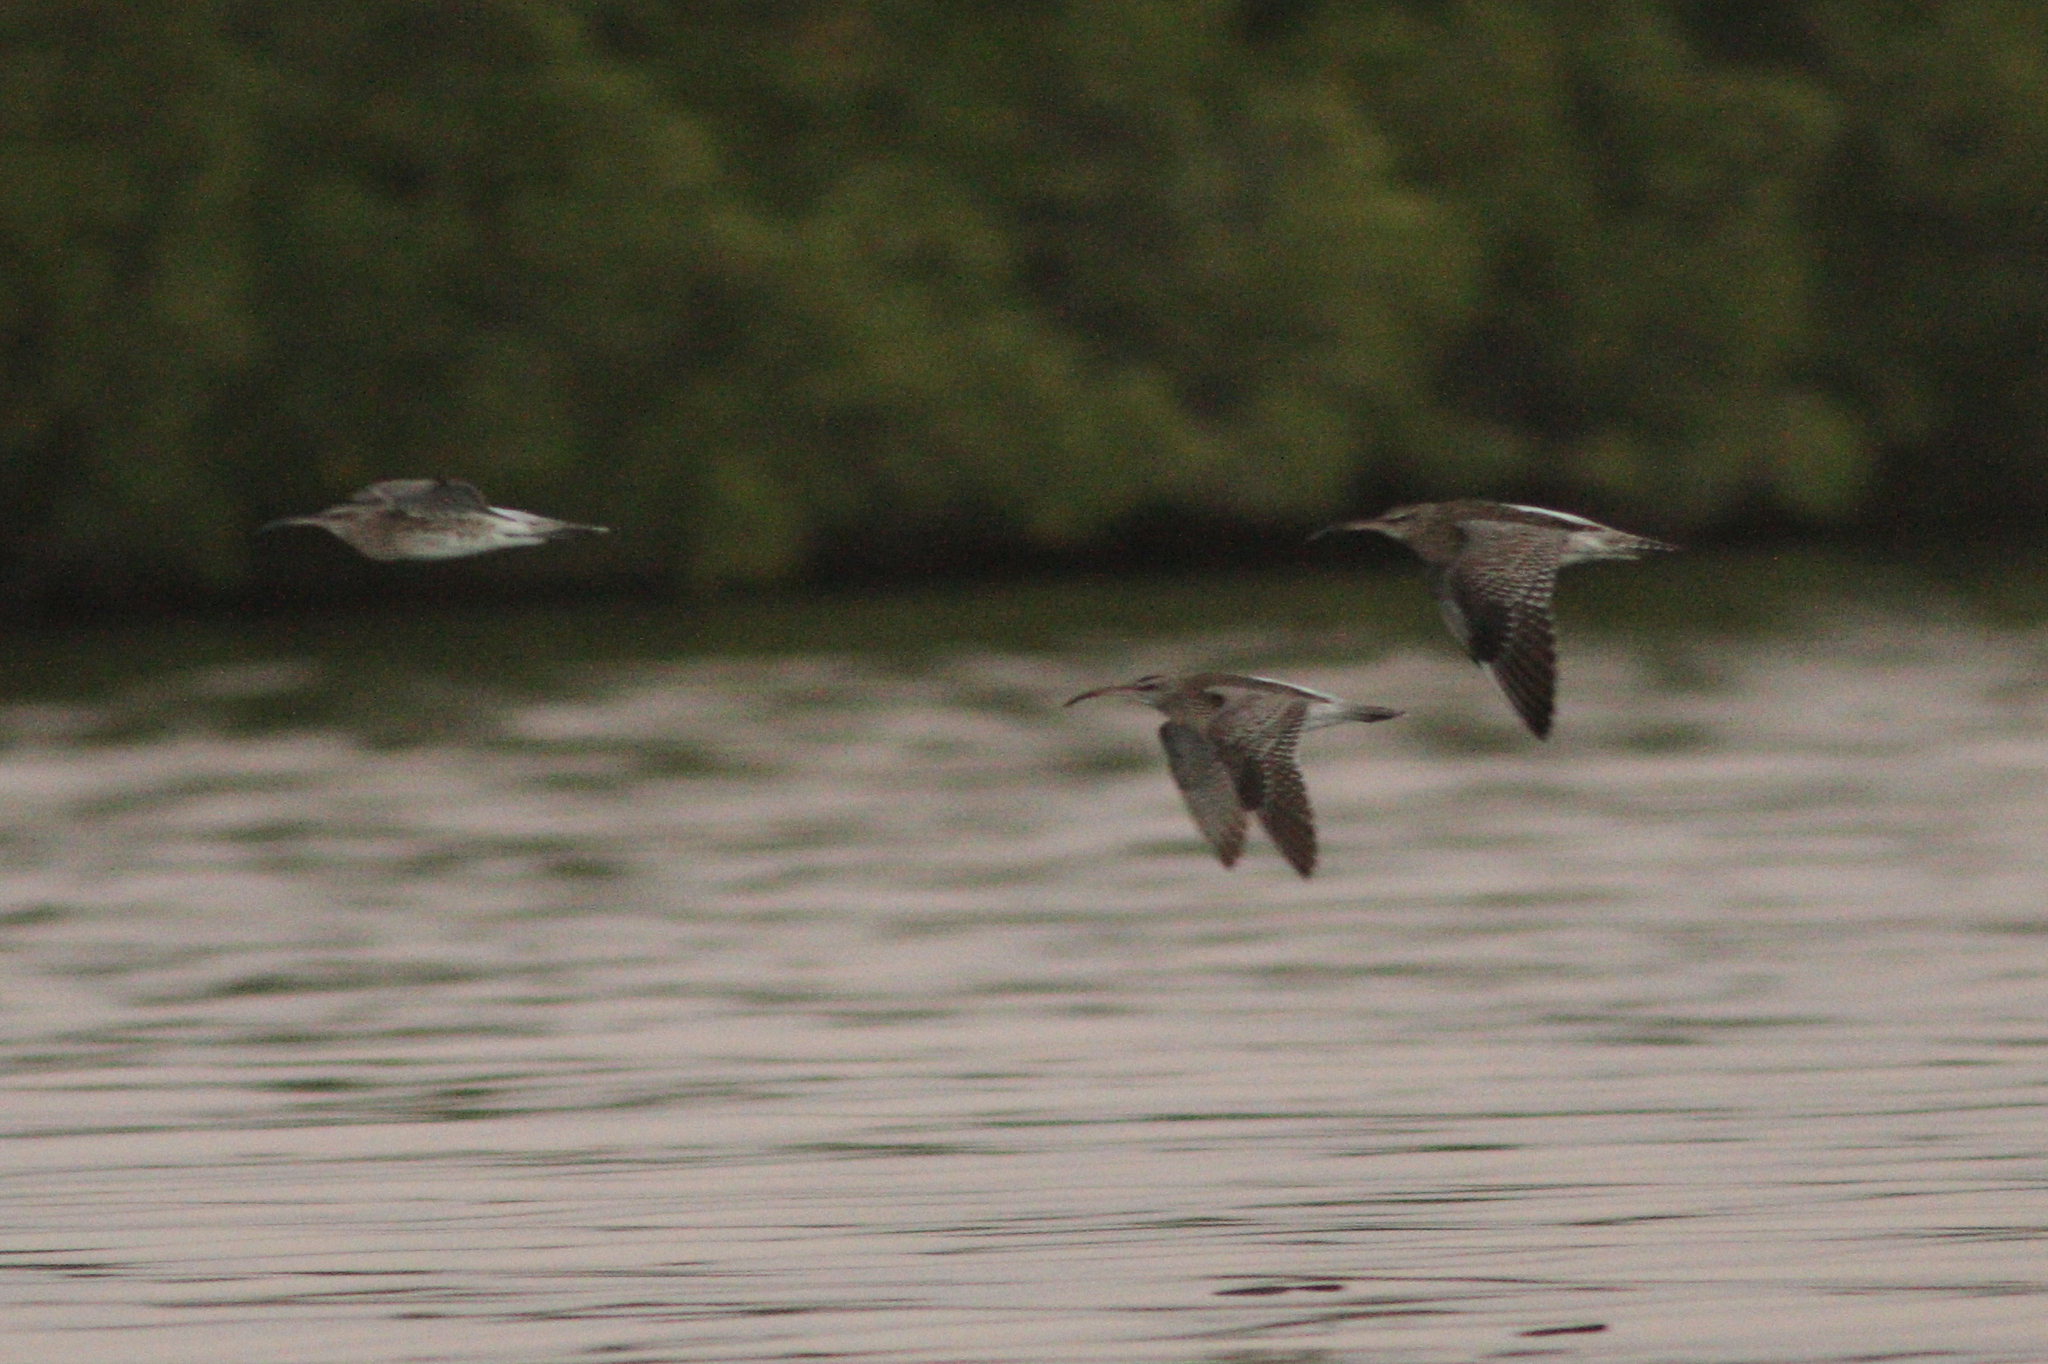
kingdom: Animalia
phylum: Chordata
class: Aves
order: Charadriiformes
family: Scolopacidae
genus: Numenius
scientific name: Numenius phaeopus
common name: Whimbrel
